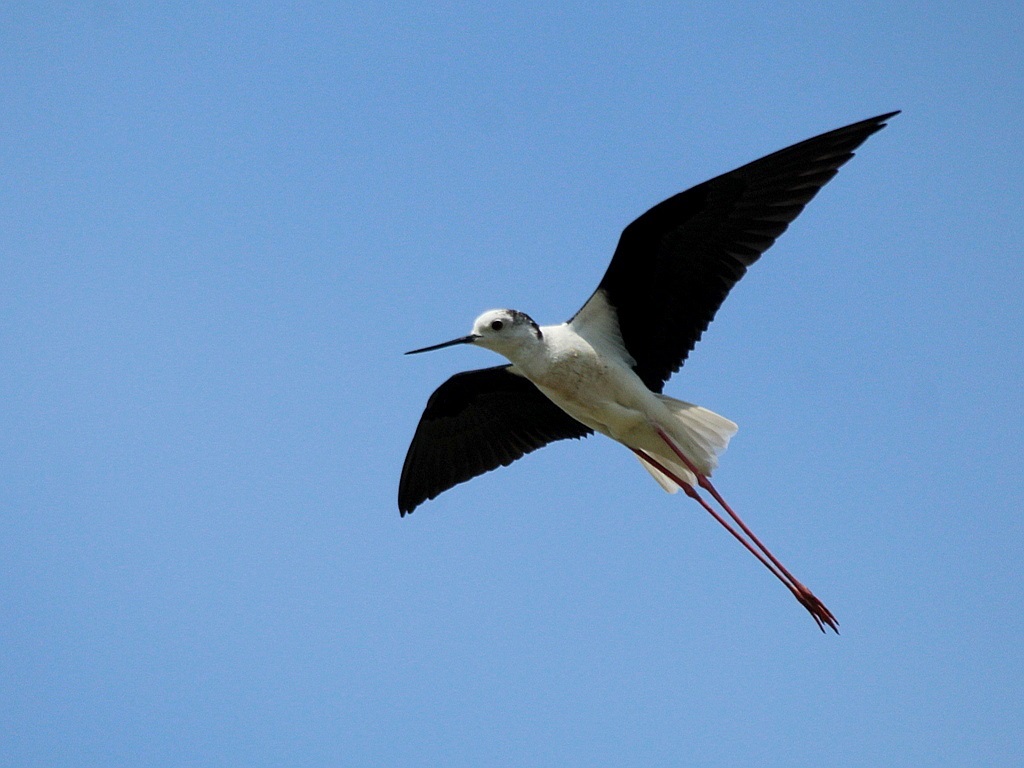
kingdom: Animalia
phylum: Chordata
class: Aves
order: Charadriiformes
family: Recurvirostridae
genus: Himantopus
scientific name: Himantopus himantopus
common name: Black-winged stilt
